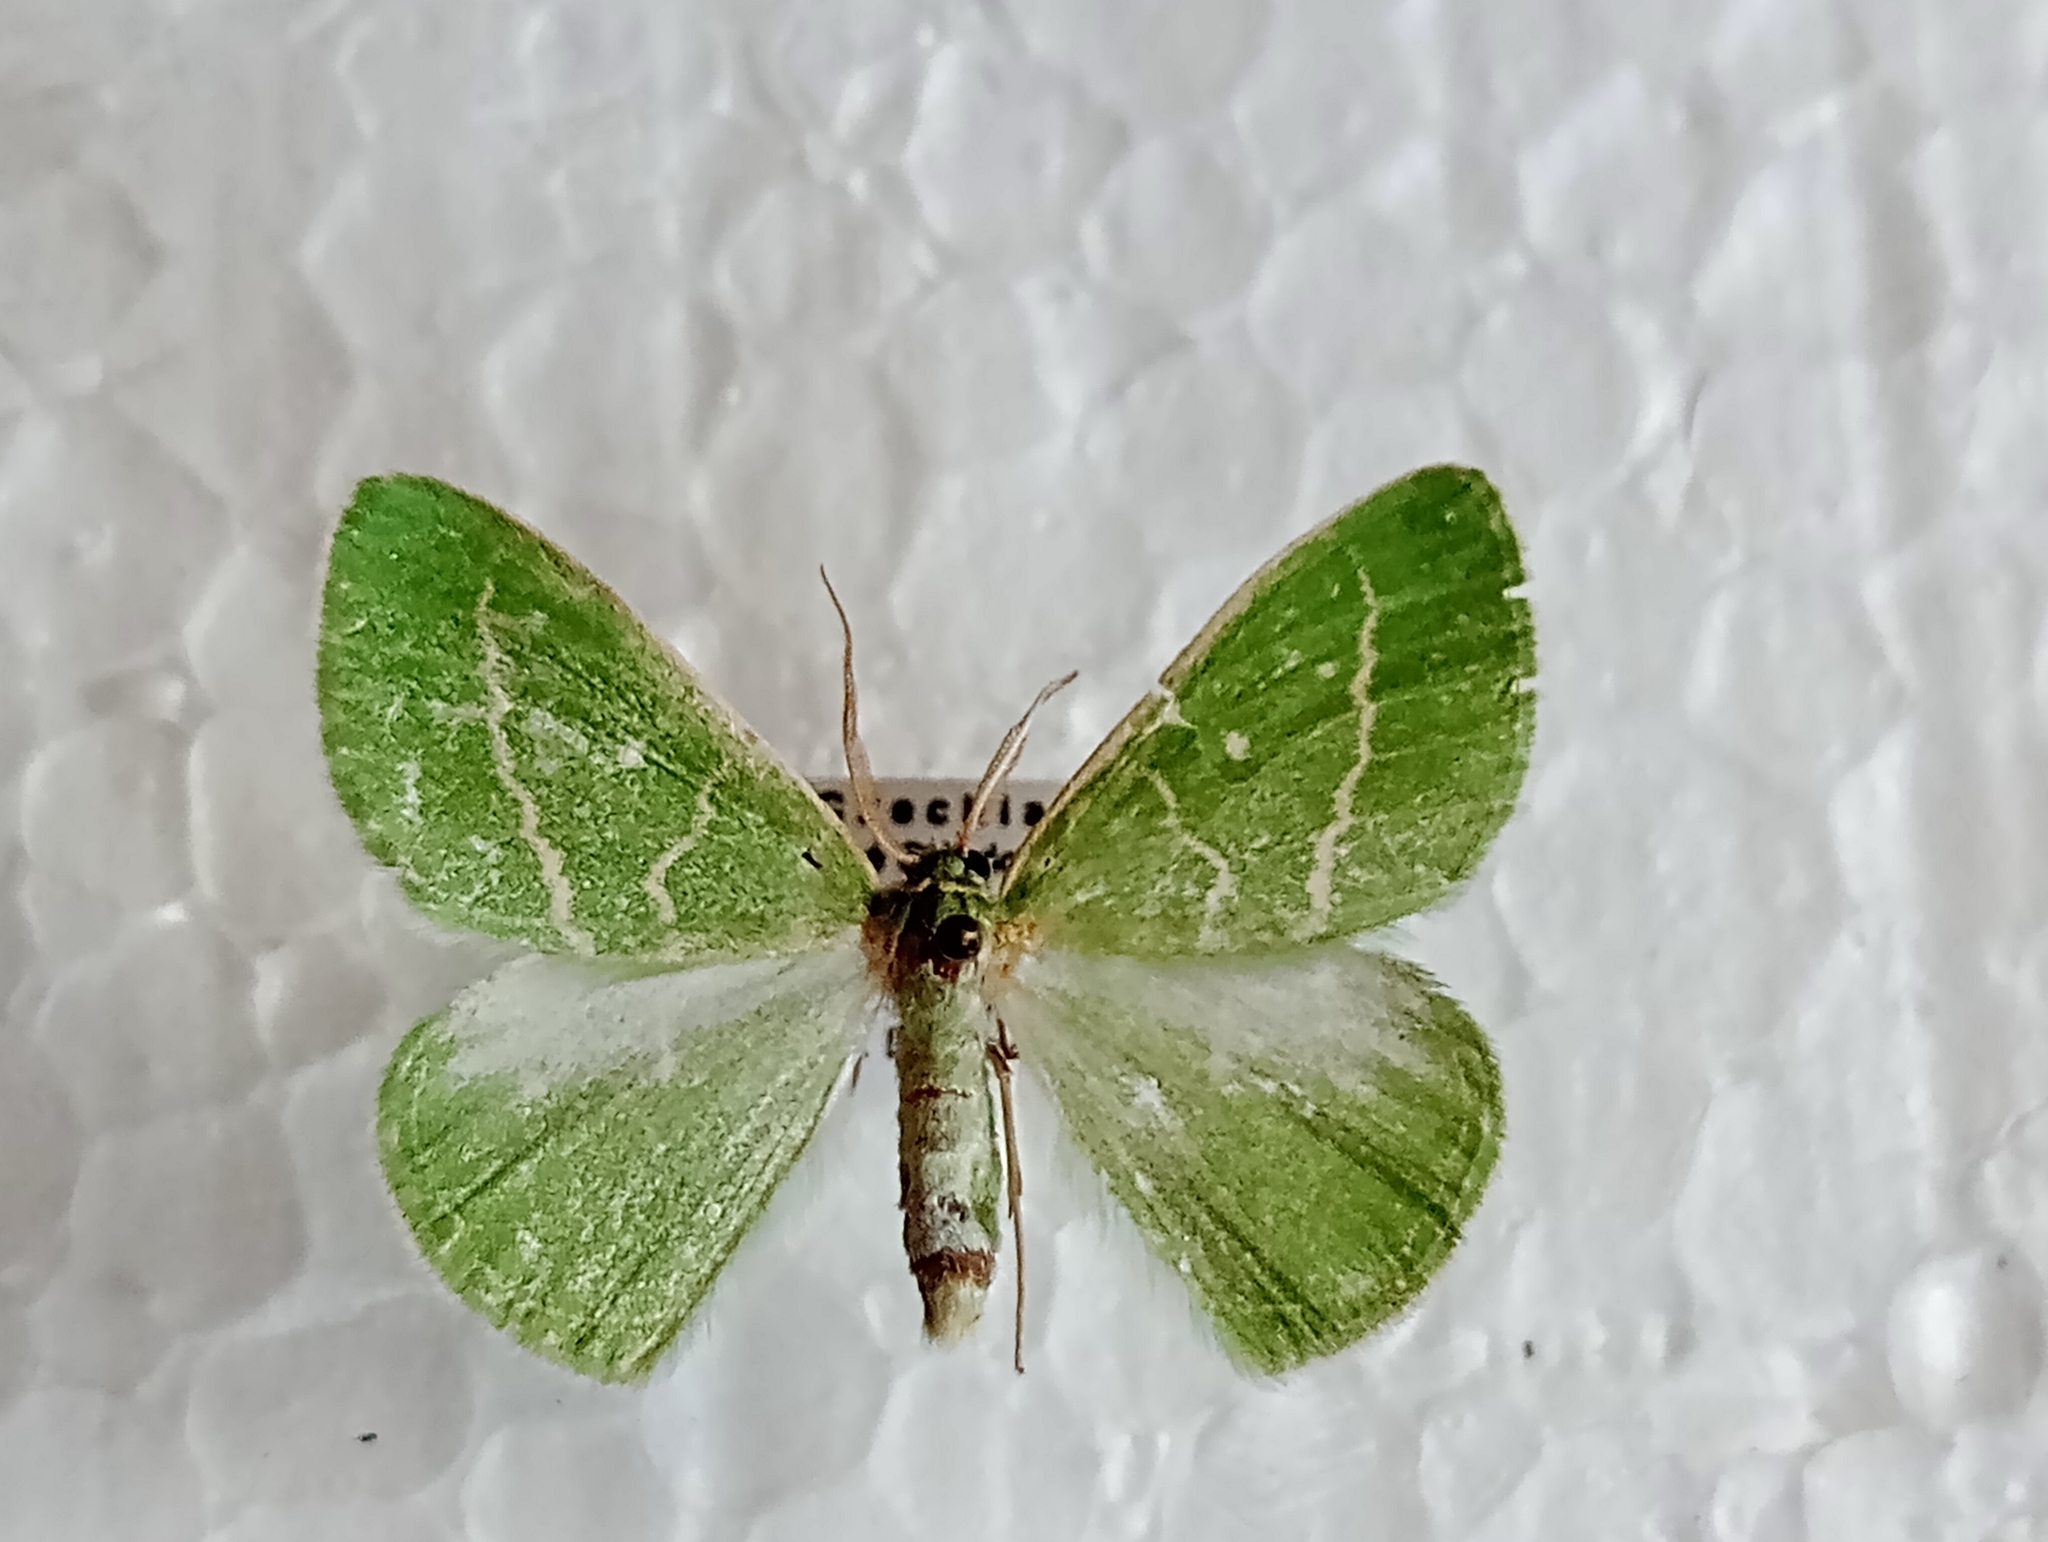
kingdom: Animalia
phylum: Arthropoda
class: Insecta
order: Lepidoptera
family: Geometridae
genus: Thetidia
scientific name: Thetidia smaragdaria
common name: Essex emerald
